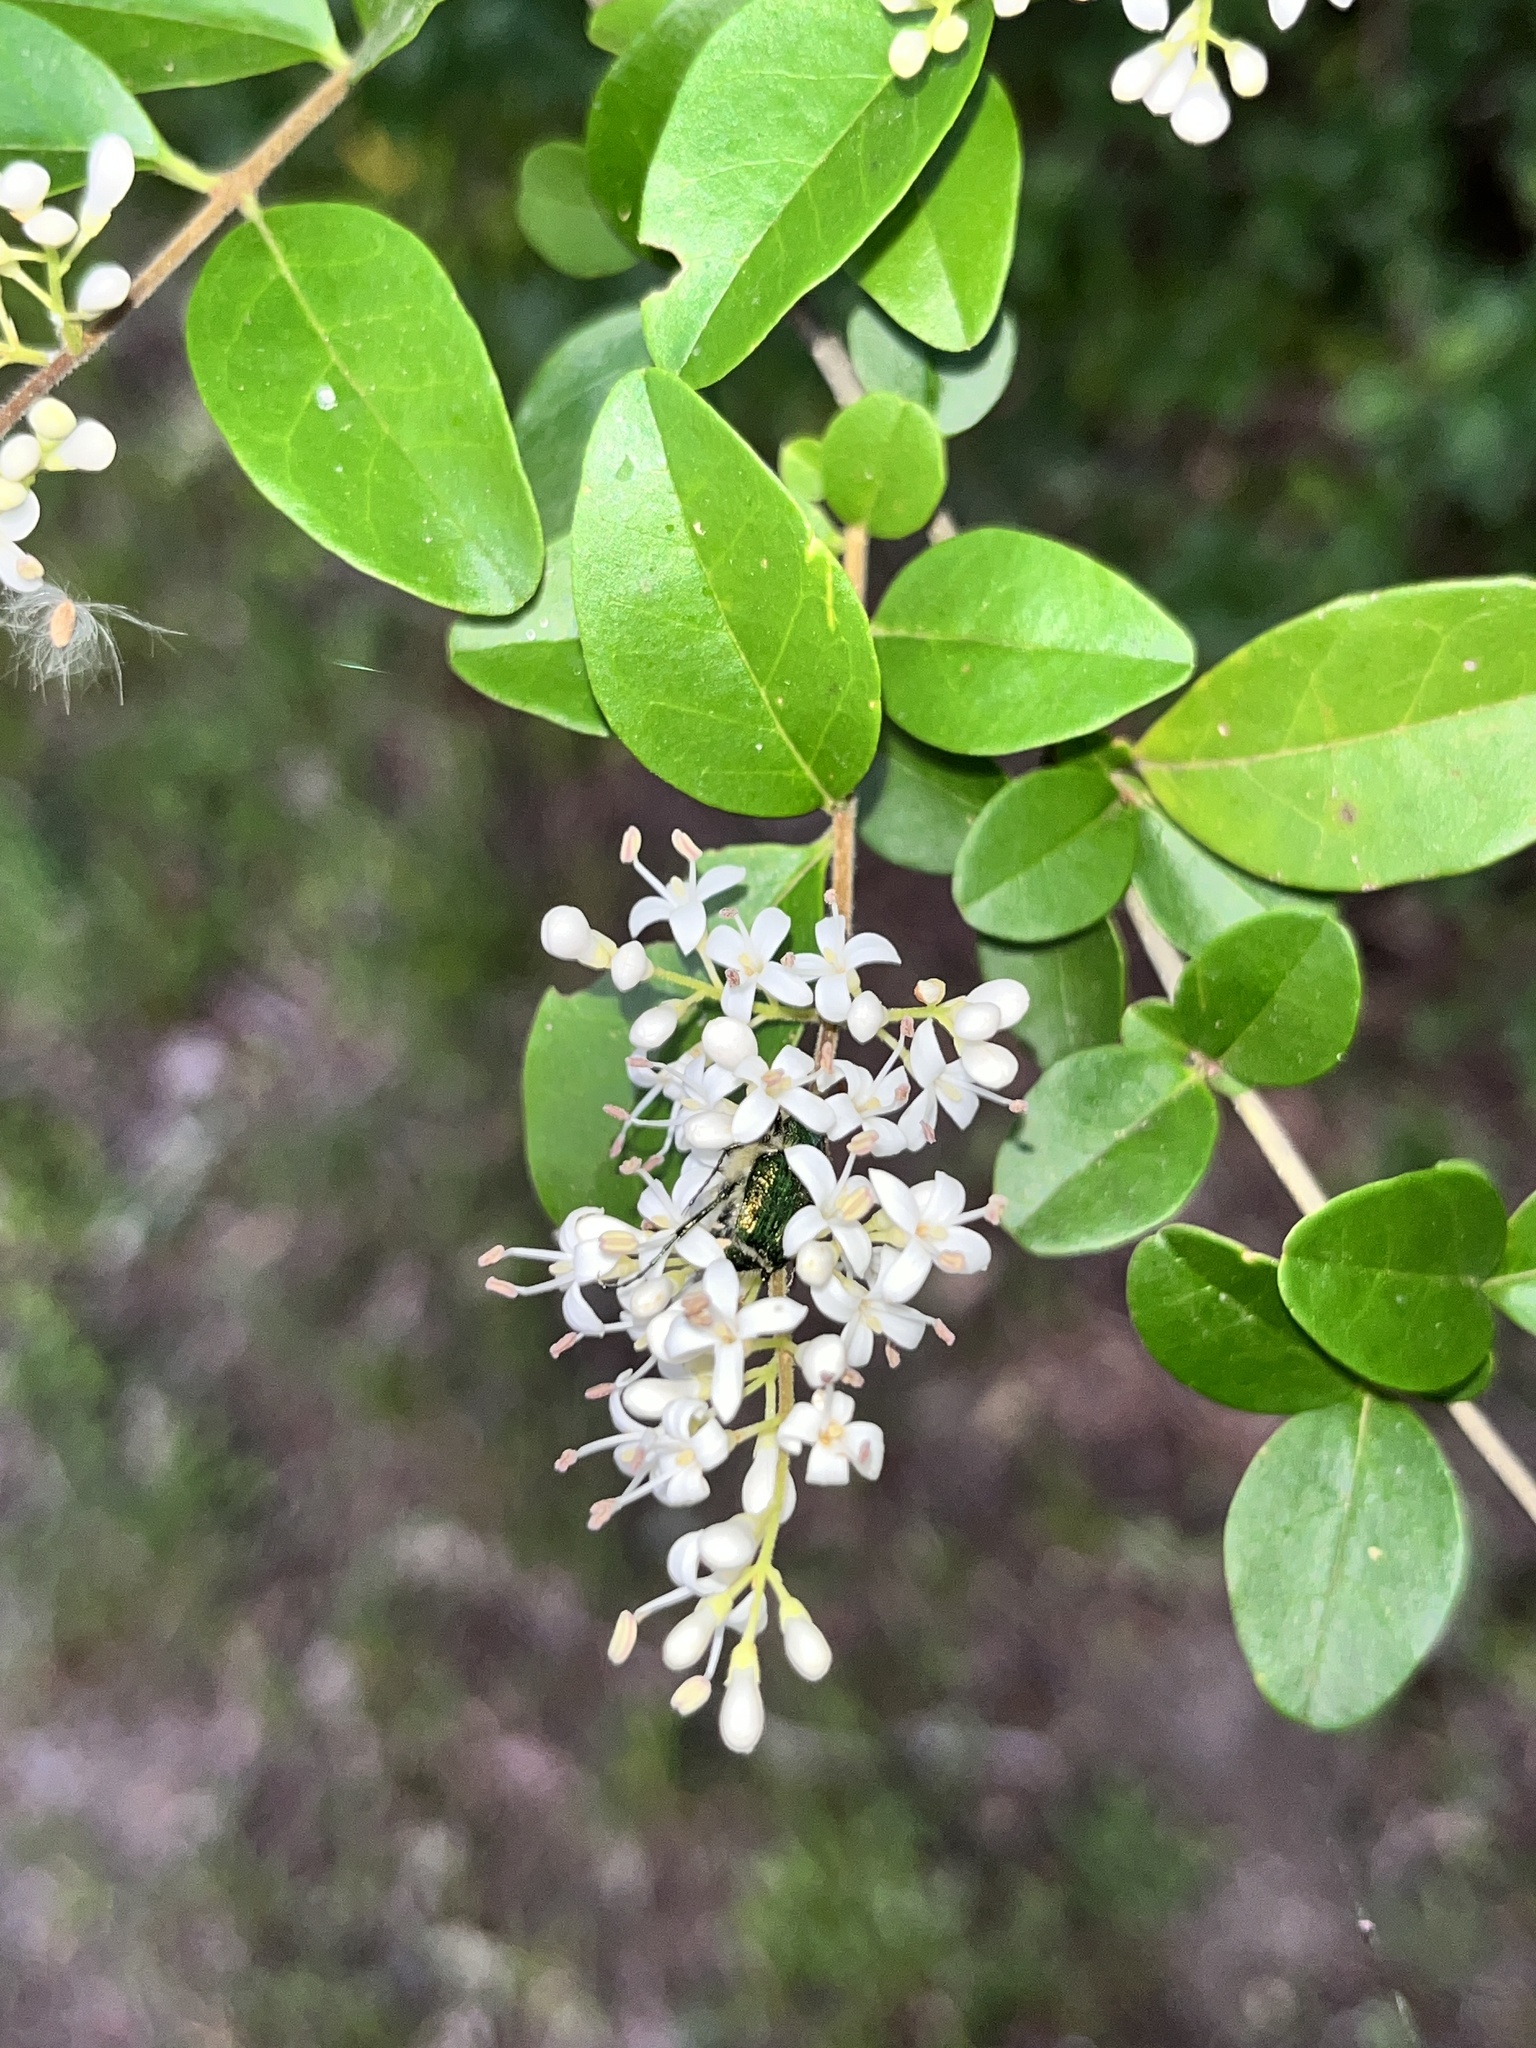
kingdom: Animalia
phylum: Arthropoda
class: Insecta
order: Coleoptera
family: Scarabaeidae
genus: Trichiotinus
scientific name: Trichiotinus lunulatus
